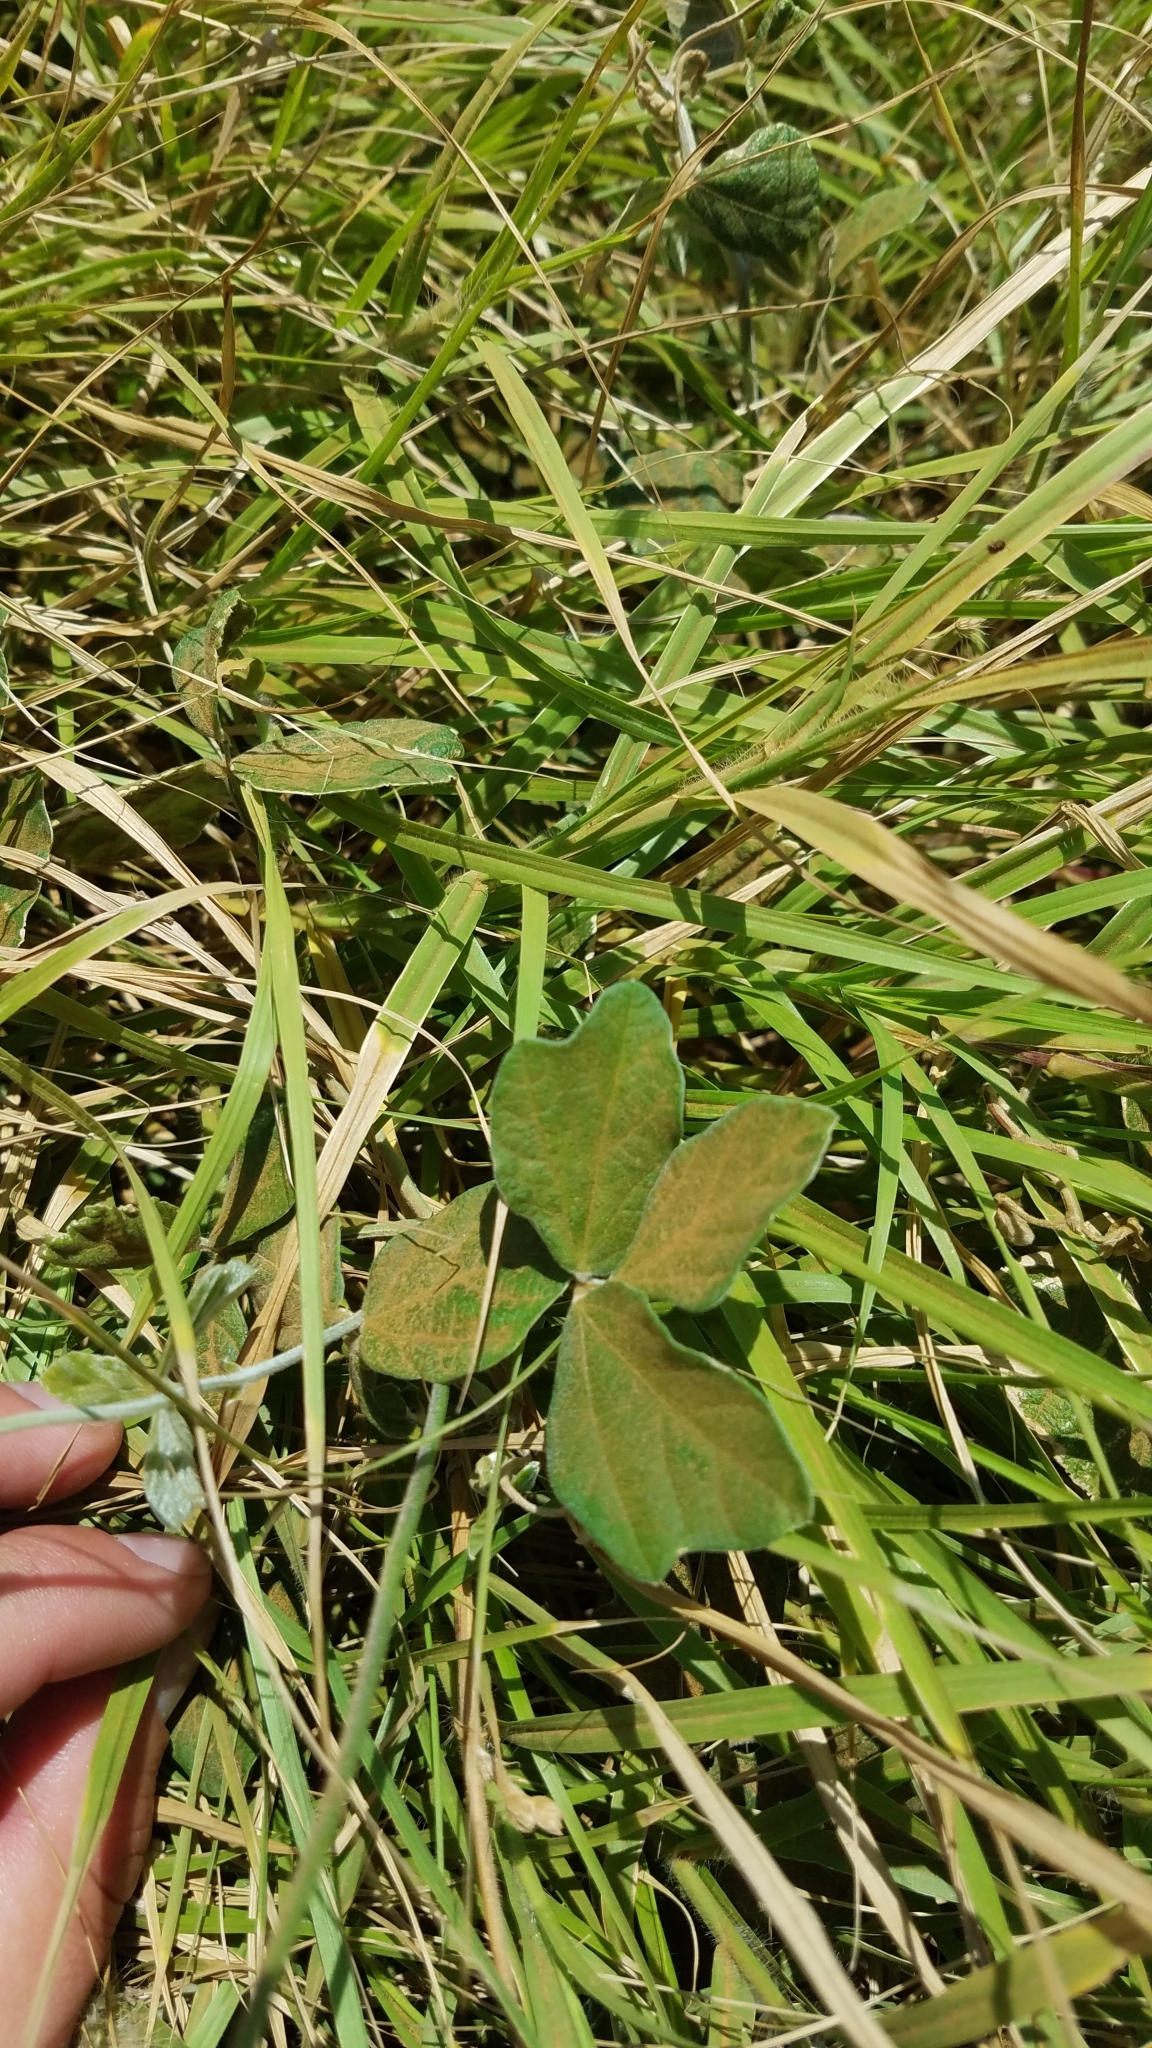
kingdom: Plantae
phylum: Tracheophyta
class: Magnoliopsida
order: Fabales
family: Fabaceae
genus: Macroptilium
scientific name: Macroptilium atropurpureum
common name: Purple bushbean
